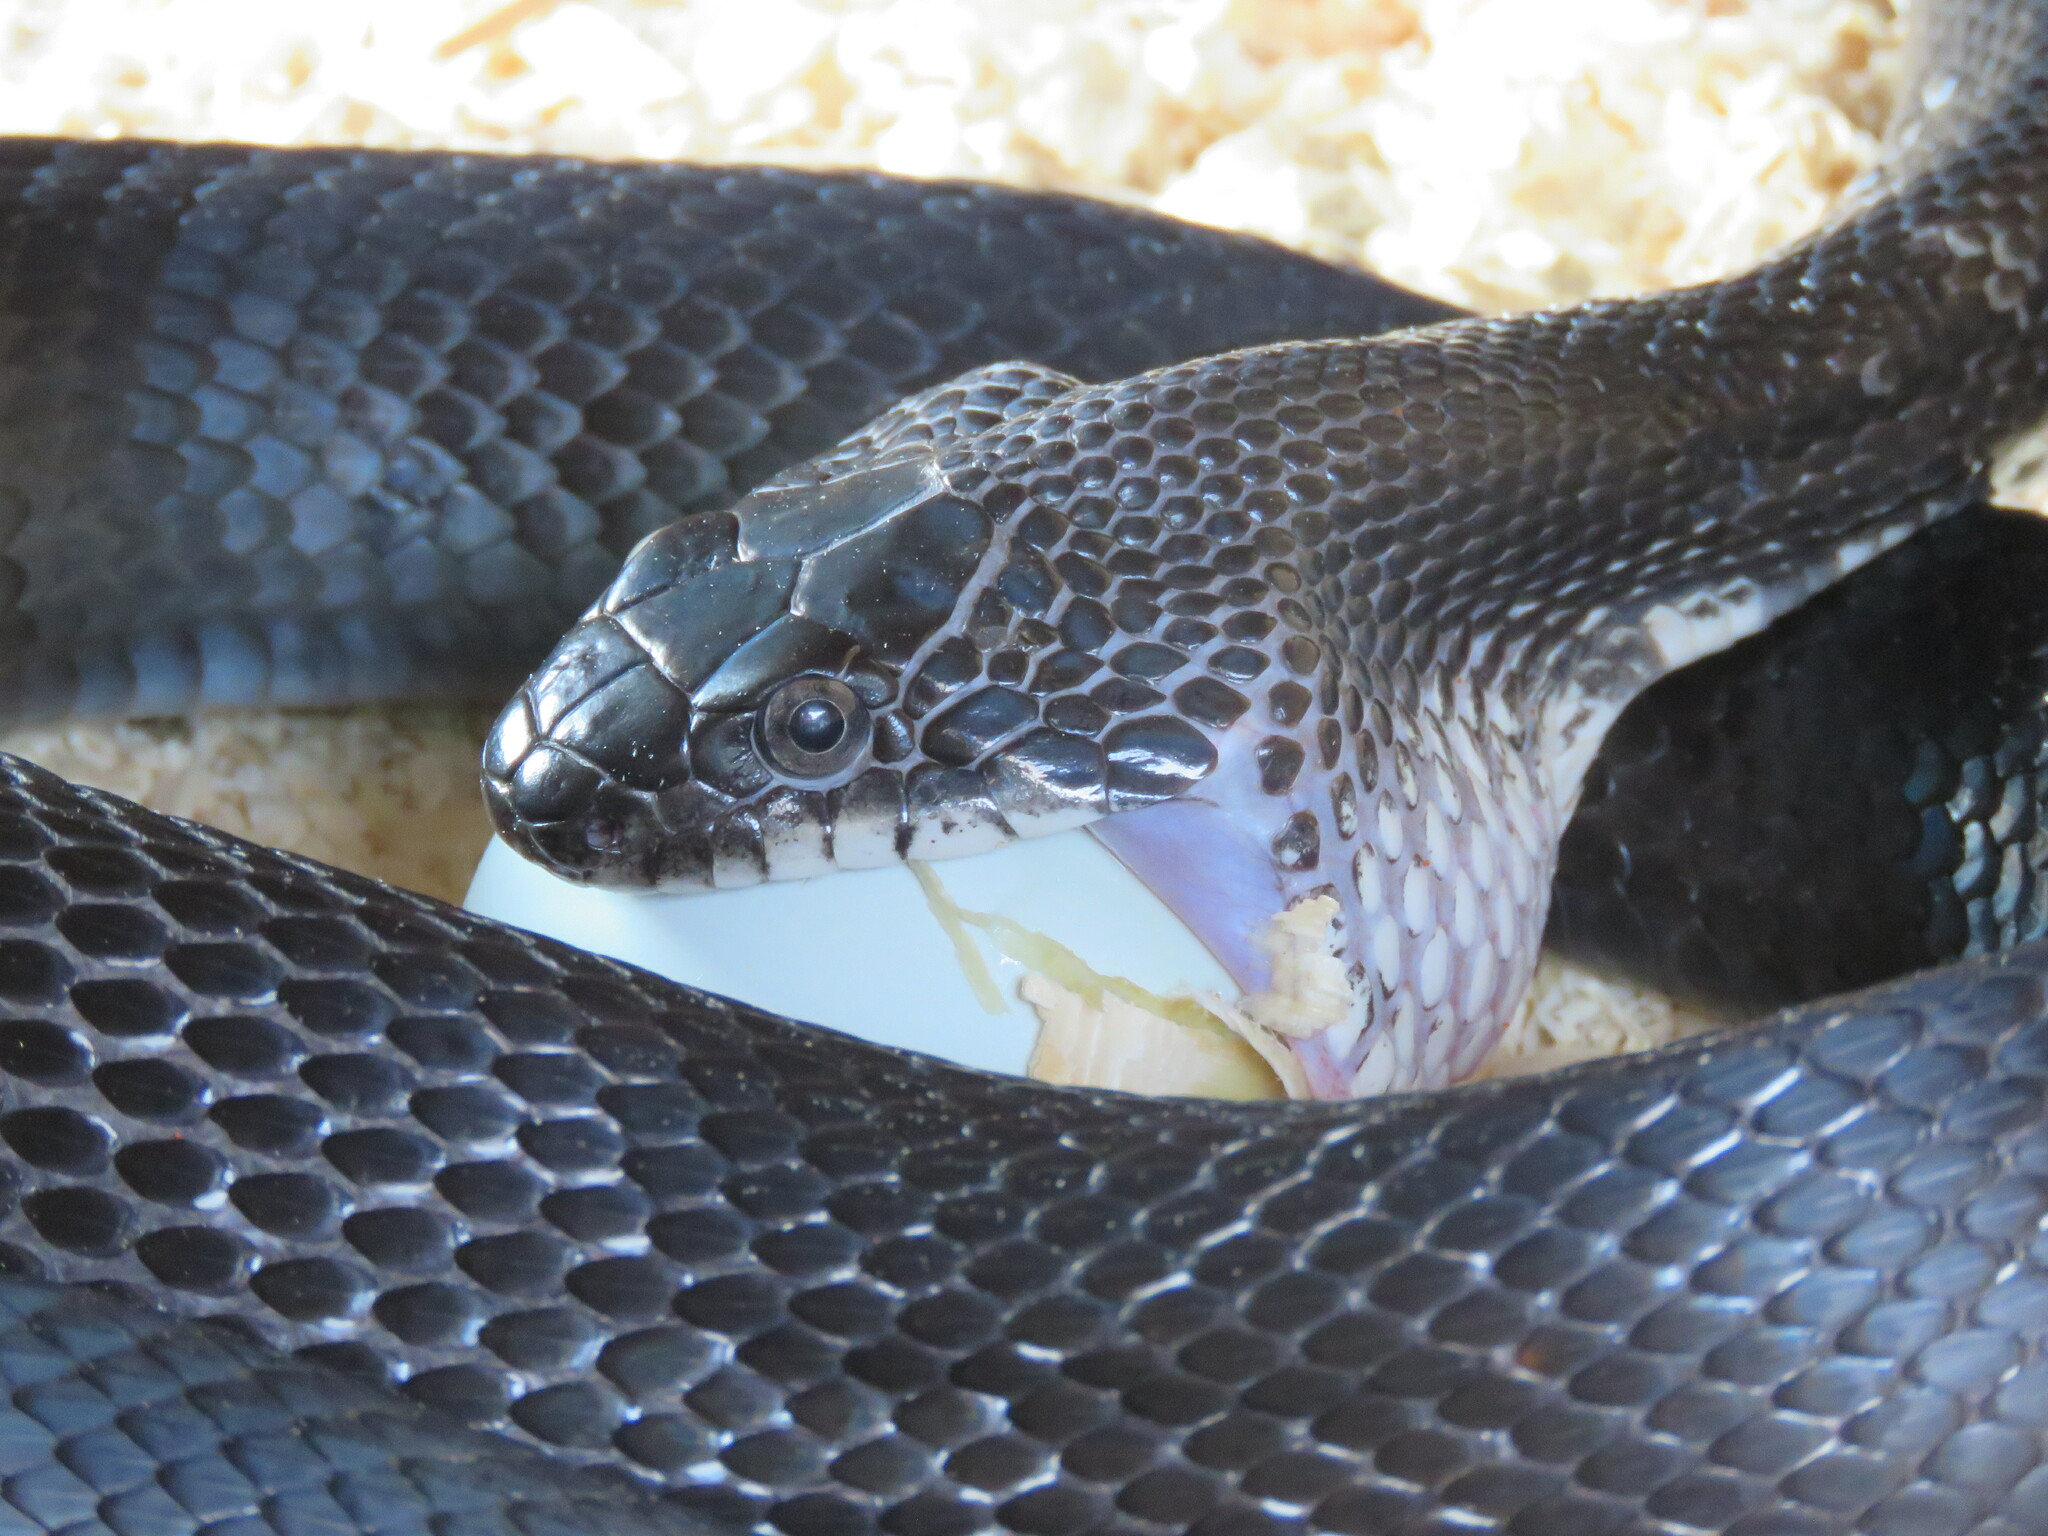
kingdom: Animalia
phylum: Chordata
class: Squamata
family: Colubridae
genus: Pantherophis
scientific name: Pantherophis alleghaniensis
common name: Eastern rat snake
